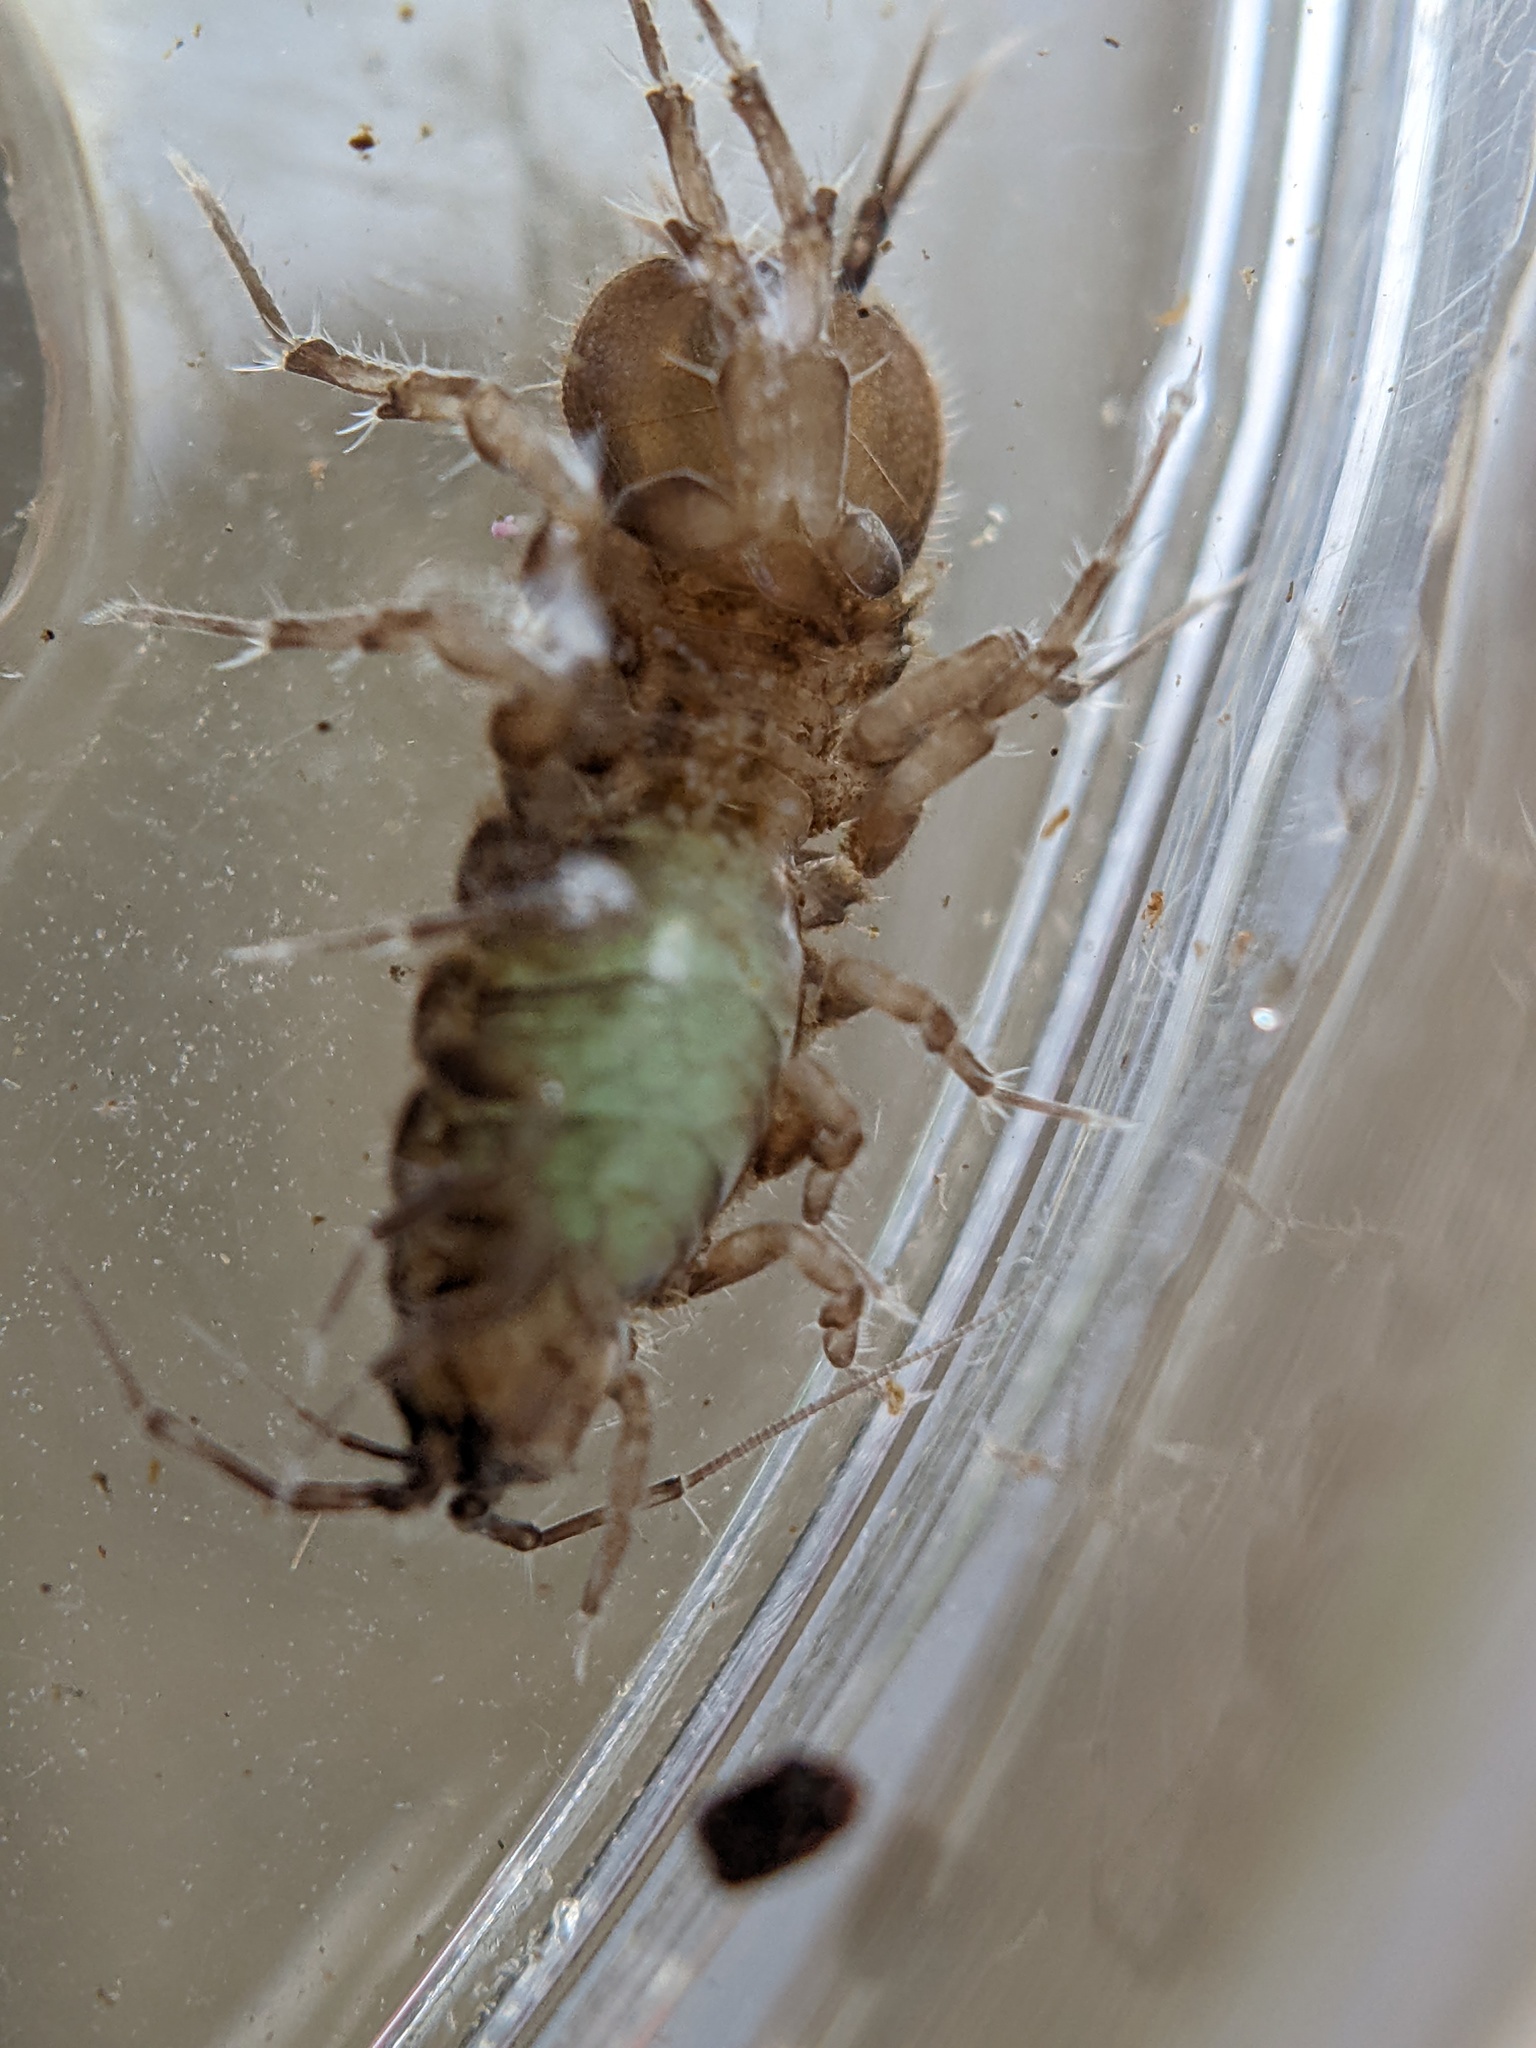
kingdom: Animalia
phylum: Arthropoda
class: Malacostraca
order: Isopoda
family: Asellidae
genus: Asellus
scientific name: Asellus aquaticus
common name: Water hog lice/slaters
